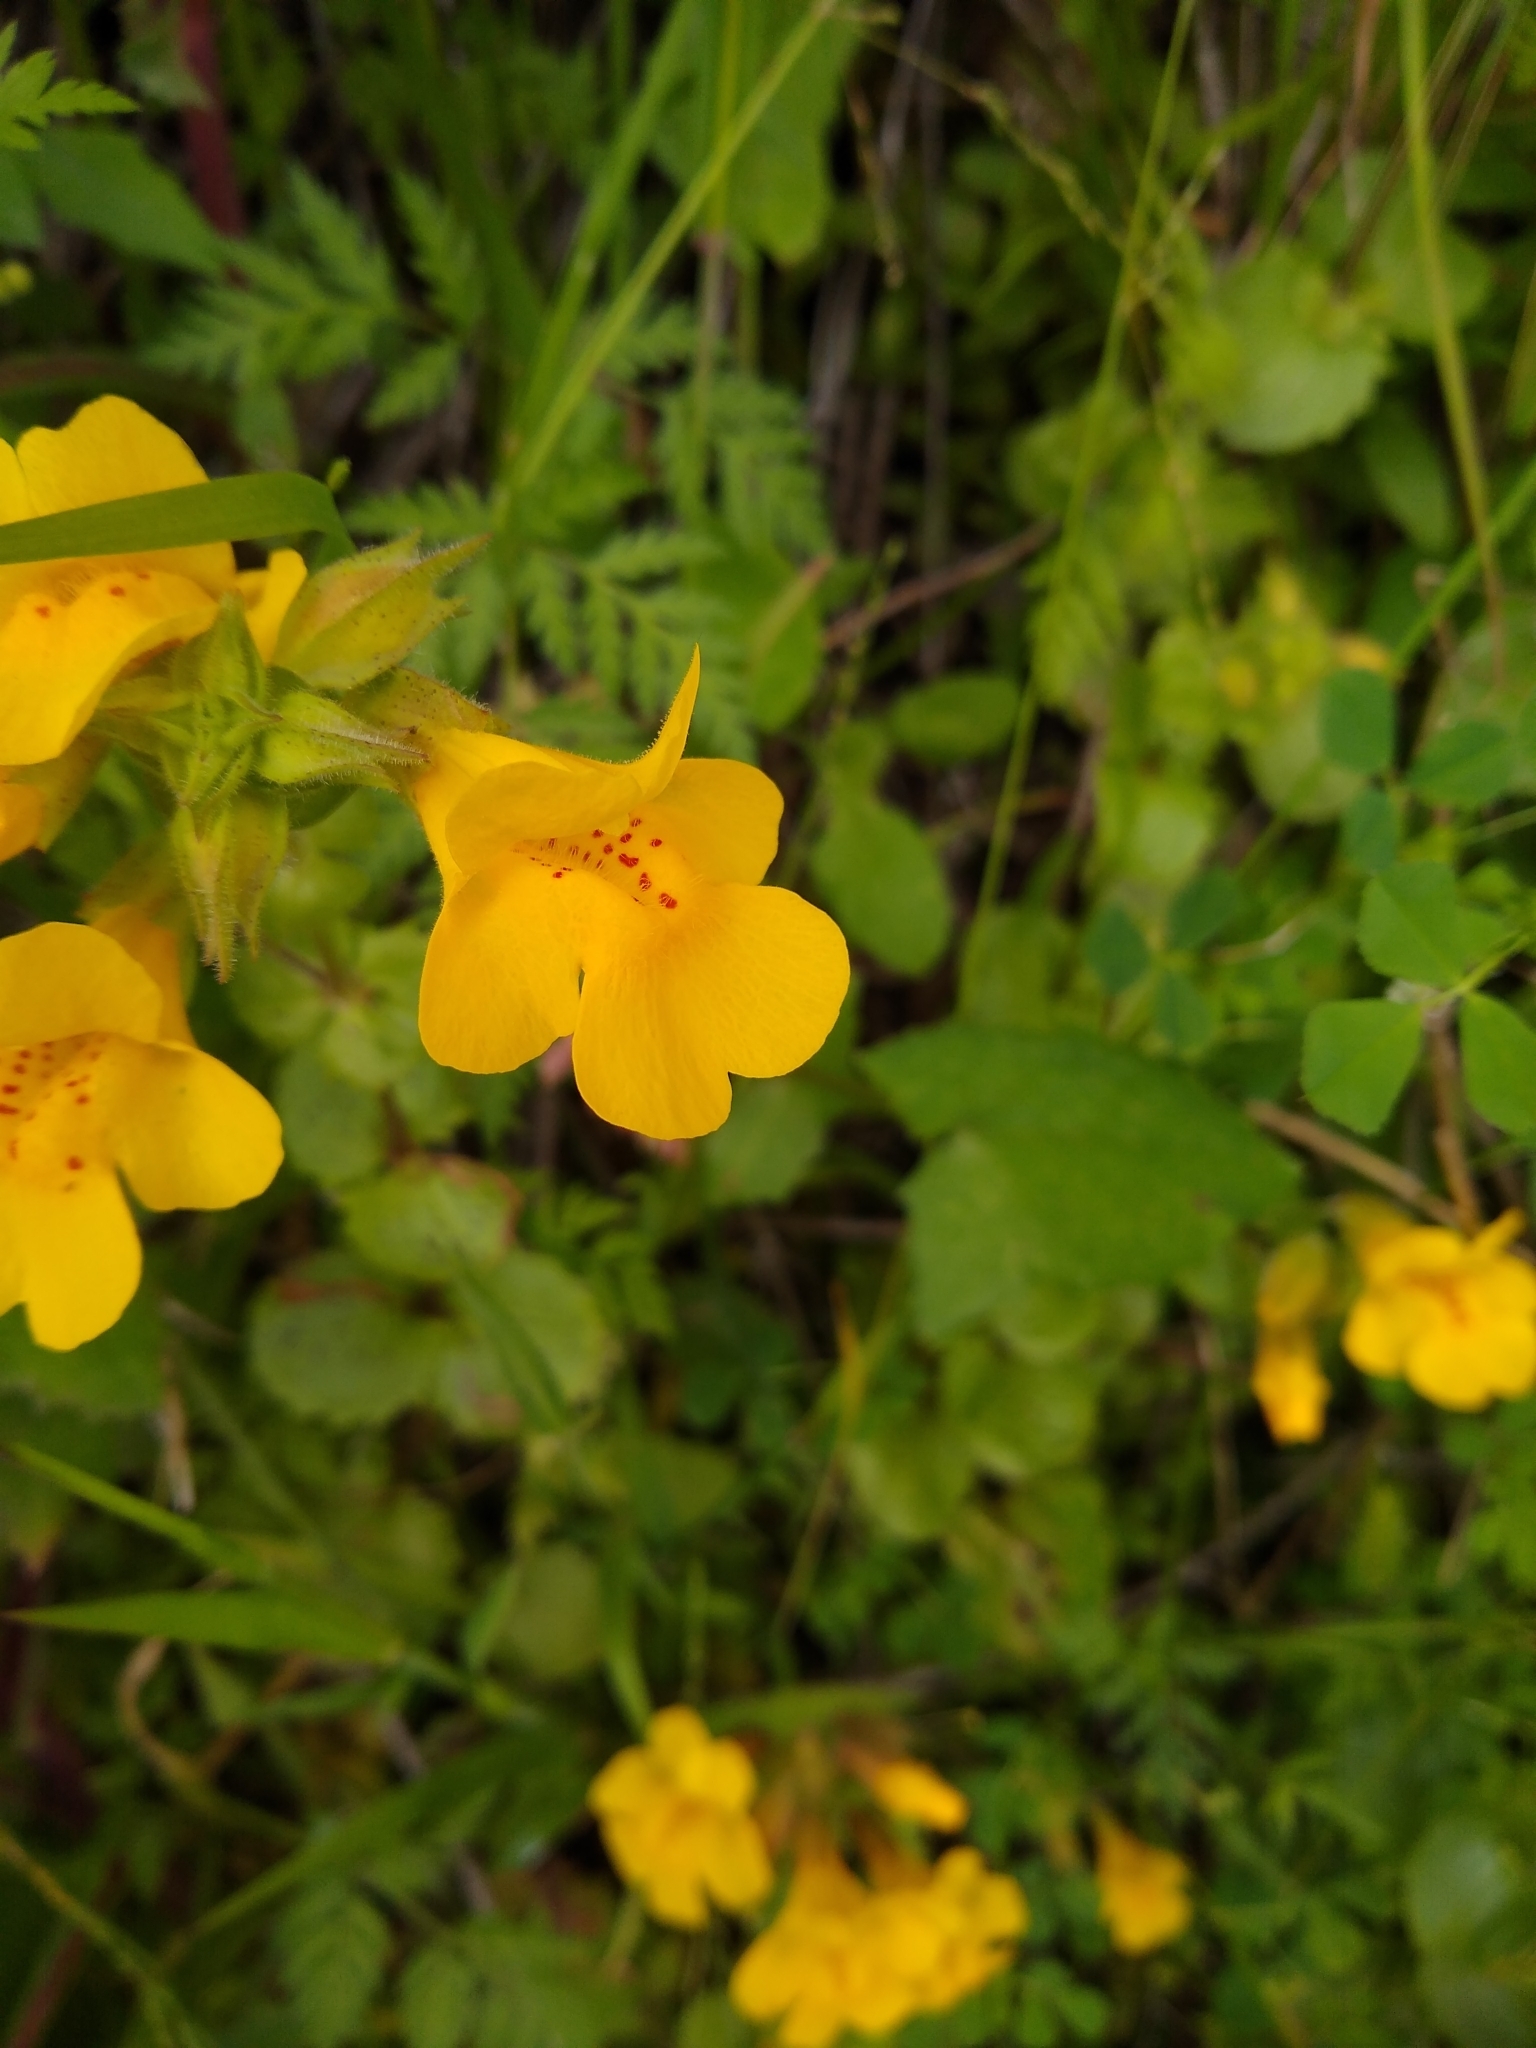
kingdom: Plantae
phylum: Tracheophyta
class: Magnoliopsida
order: Lamiales
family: Phrymaceae
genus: Erythranthe
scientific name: Erythranthe guttata
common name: Monkeyflower
